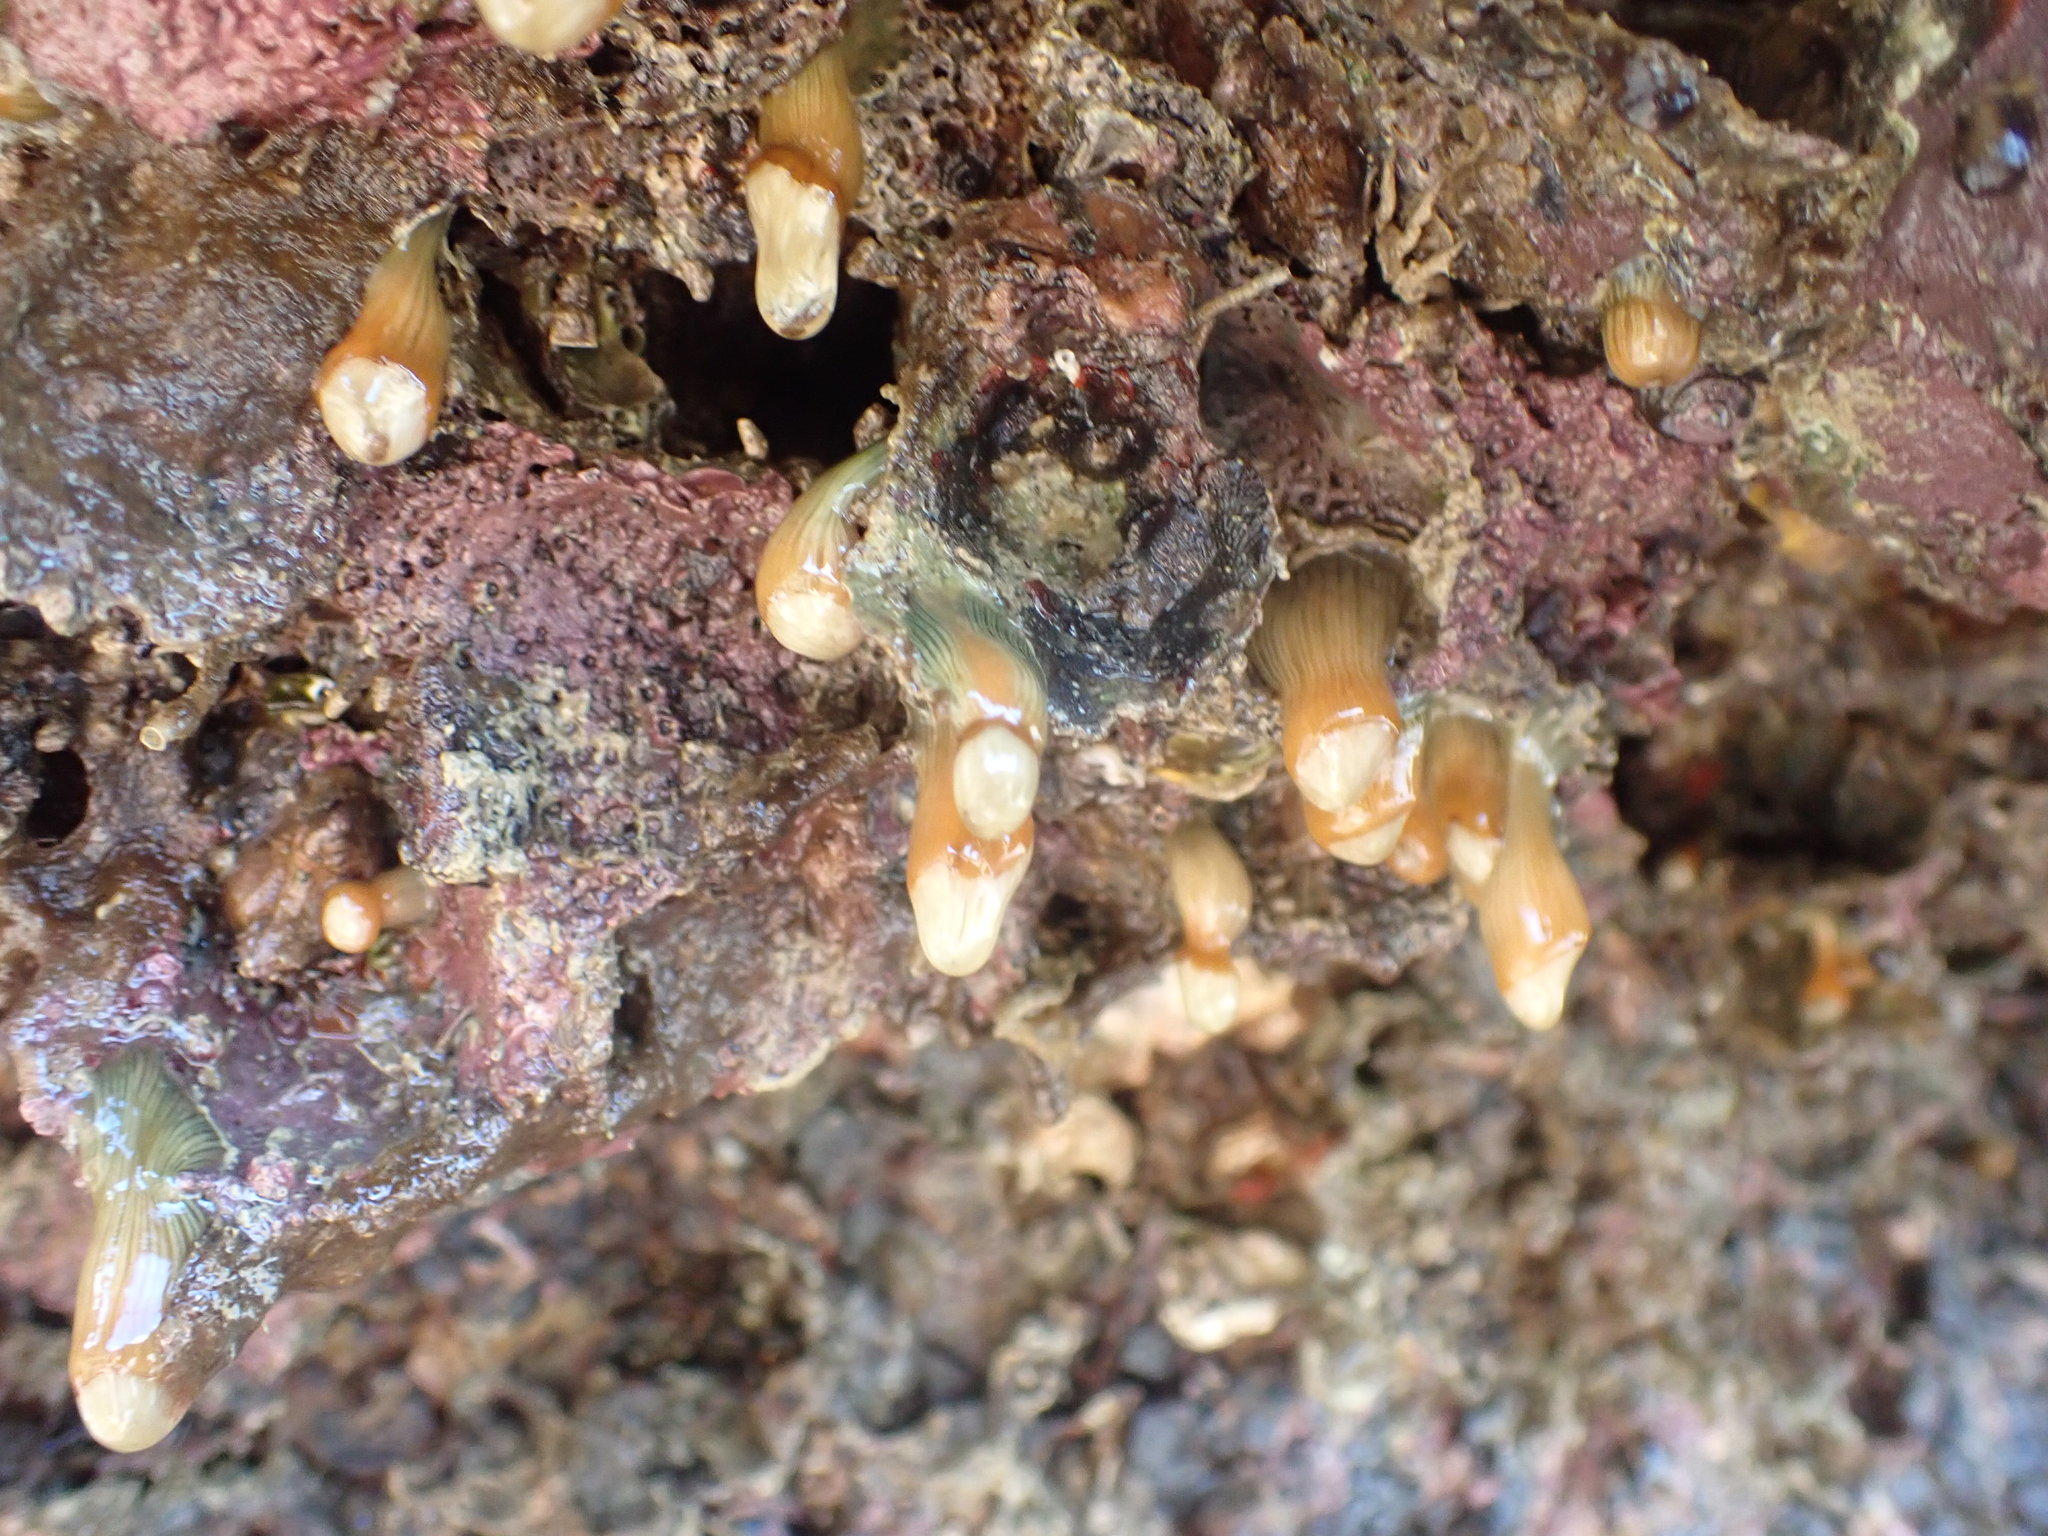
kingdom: Animalia
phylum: Cnidaria
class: Anthozoa
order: Actiniaria
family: Sagartiidae
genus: Anthothoe
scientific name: Anthothoe albocincta
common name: Orange striped anemone
